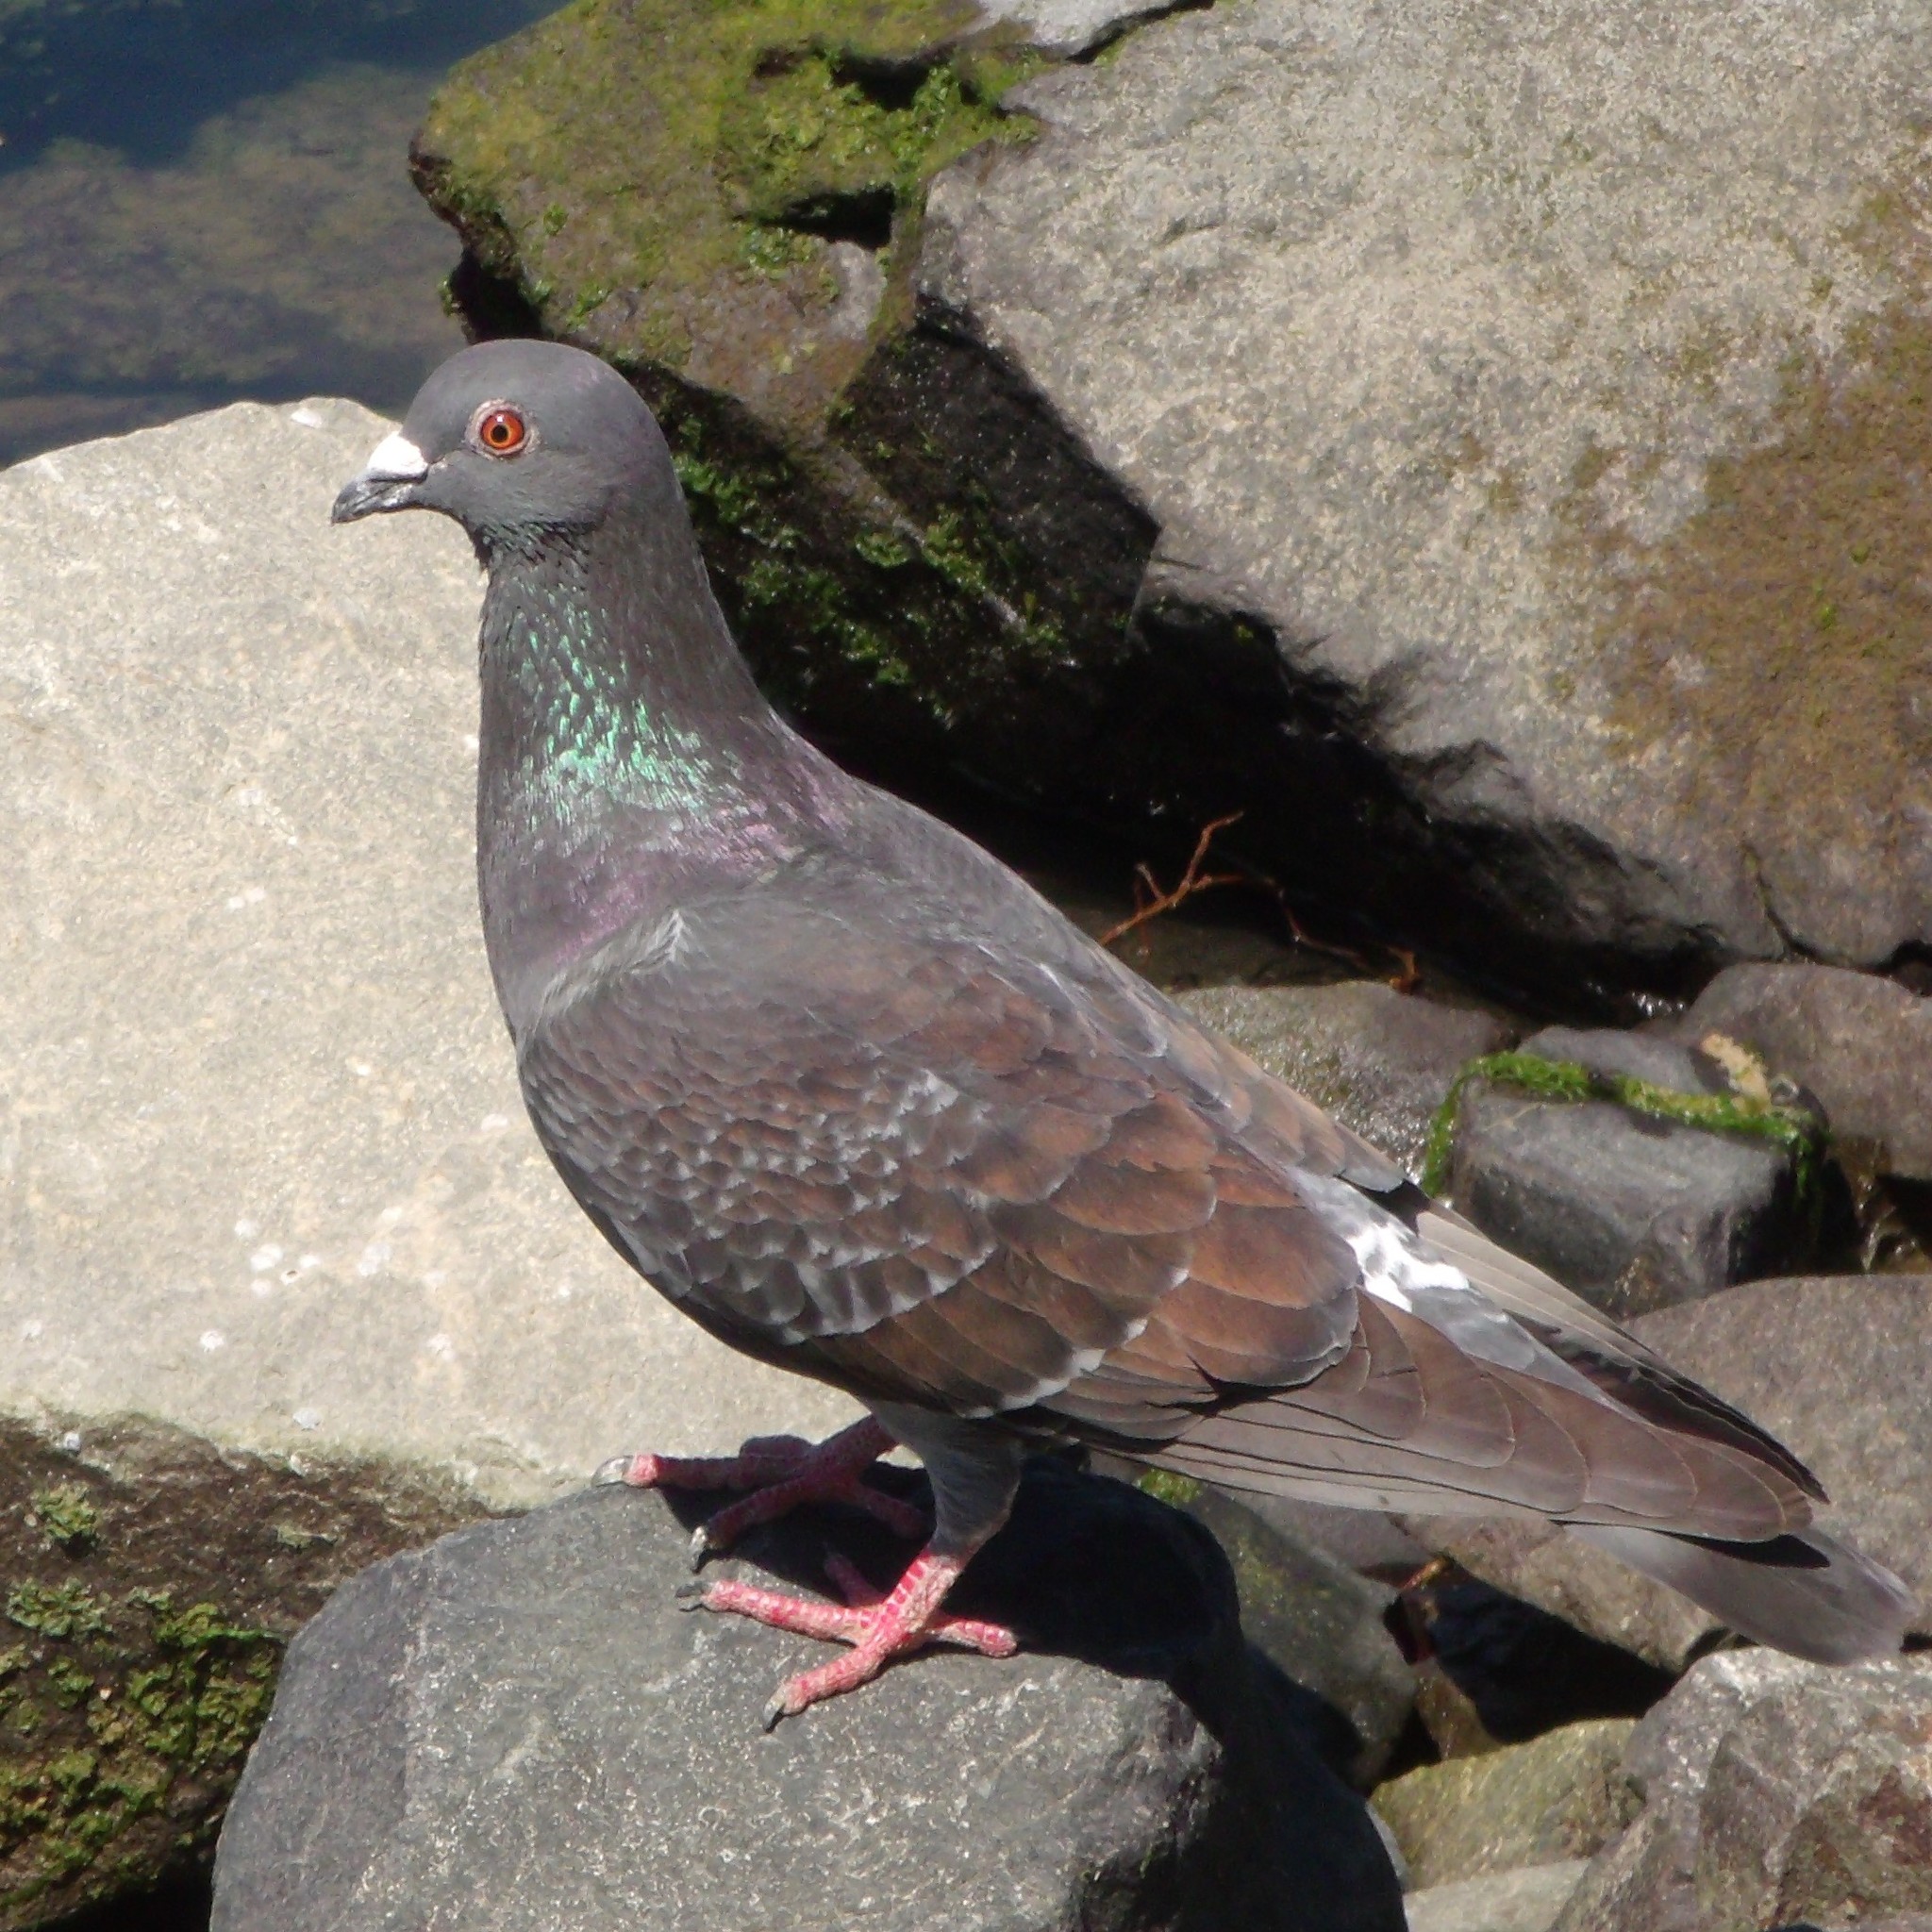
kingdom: Animalia
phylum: Chordata
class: Aves
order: Columbiformes
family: Columbidae
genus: Columba
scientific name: Columba livia
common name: Rock pigeon
